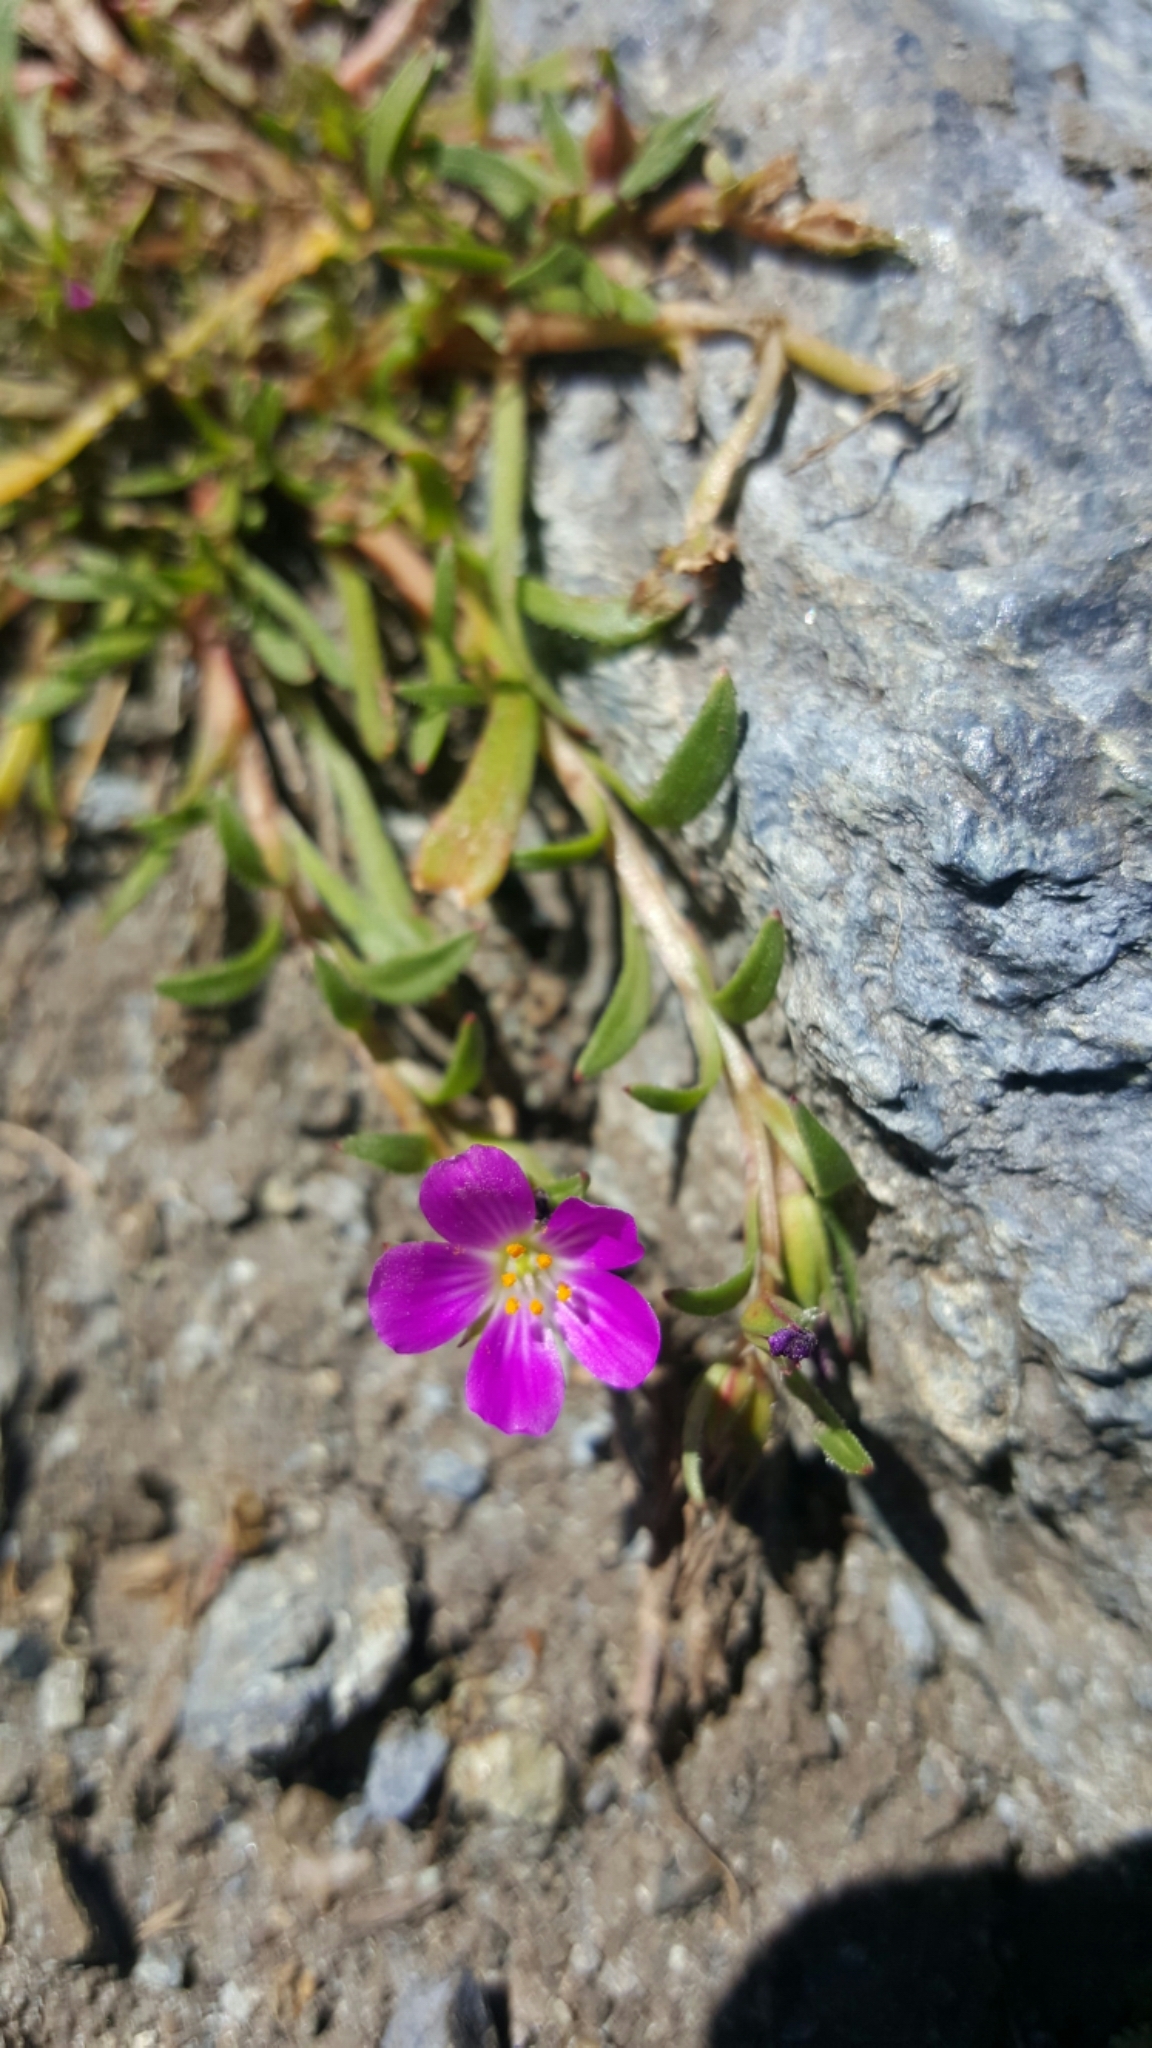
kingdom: Plantae
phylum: Tracheophyta
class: Magnoliopsida
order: Caryophyllales
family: Montiaceae
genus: Calandrinia
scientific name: Calandrinia menziesii
